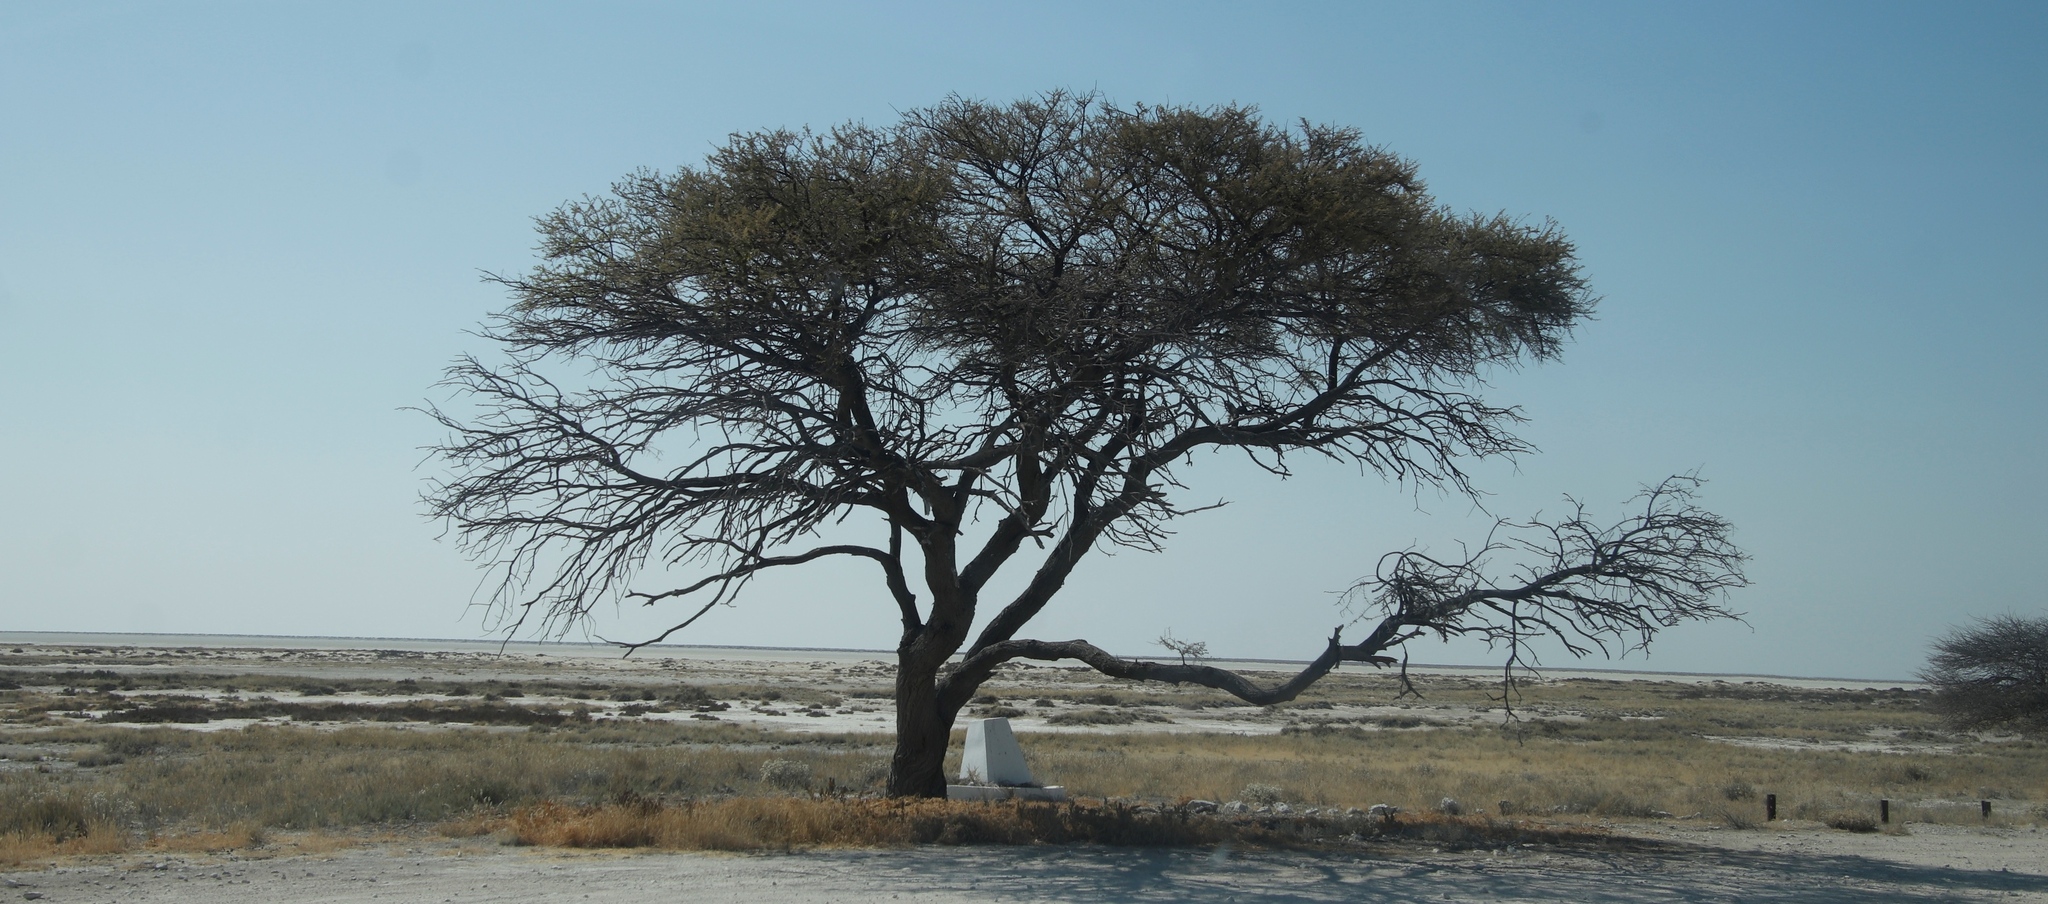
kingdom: Plantae
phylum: Tracheophyta
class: Magnoliopsida
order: Fabales
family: Fabaceae
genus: Vachellia
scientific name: Vachellia tortilis
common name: Umbrella thorn acacia
